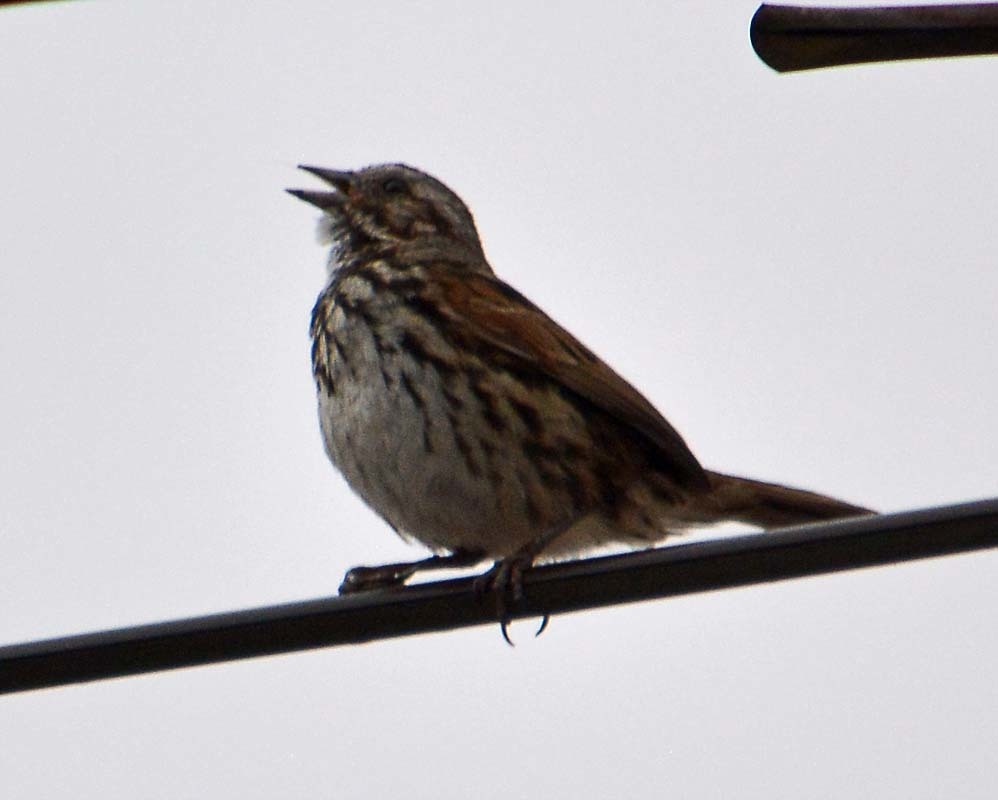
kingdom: Animalia
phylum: Chordata
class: Aves
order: Passeriformes
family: Passerellidae
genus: Melospiza
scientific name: Melospiza melodia
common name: Song sparrow
